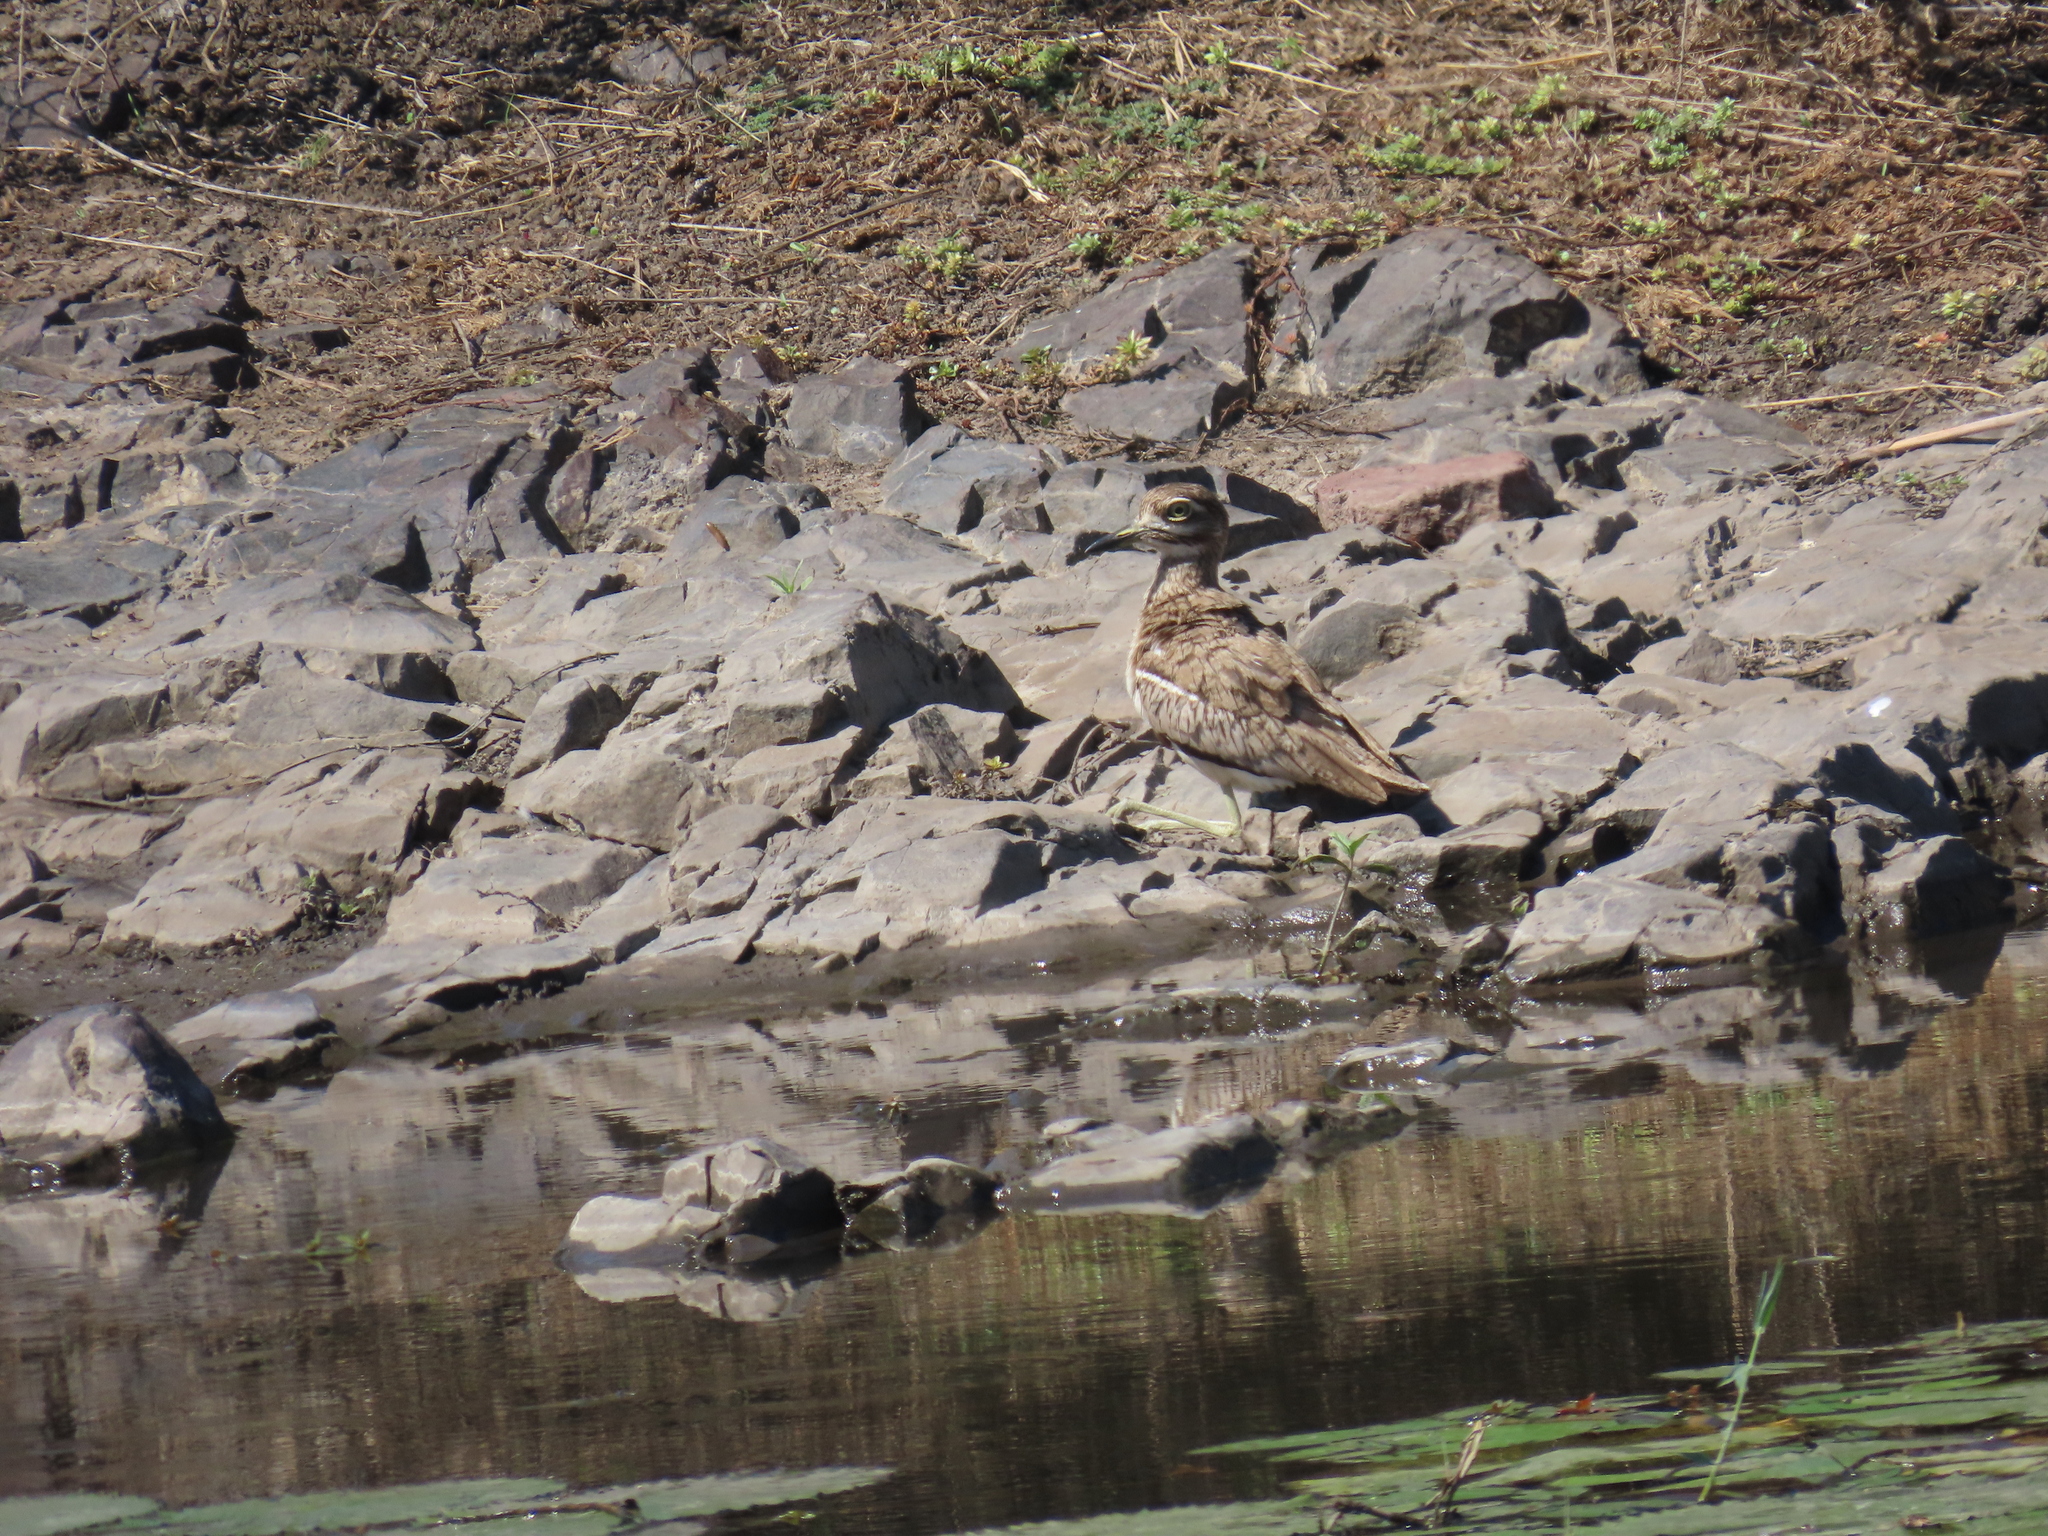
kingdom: Animalia
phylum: Chordata
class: Aves
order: Charadriiformes
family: Burhinidae
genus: Burhinus
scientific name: Burhinus vermiculatus
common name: Water thick-knee
